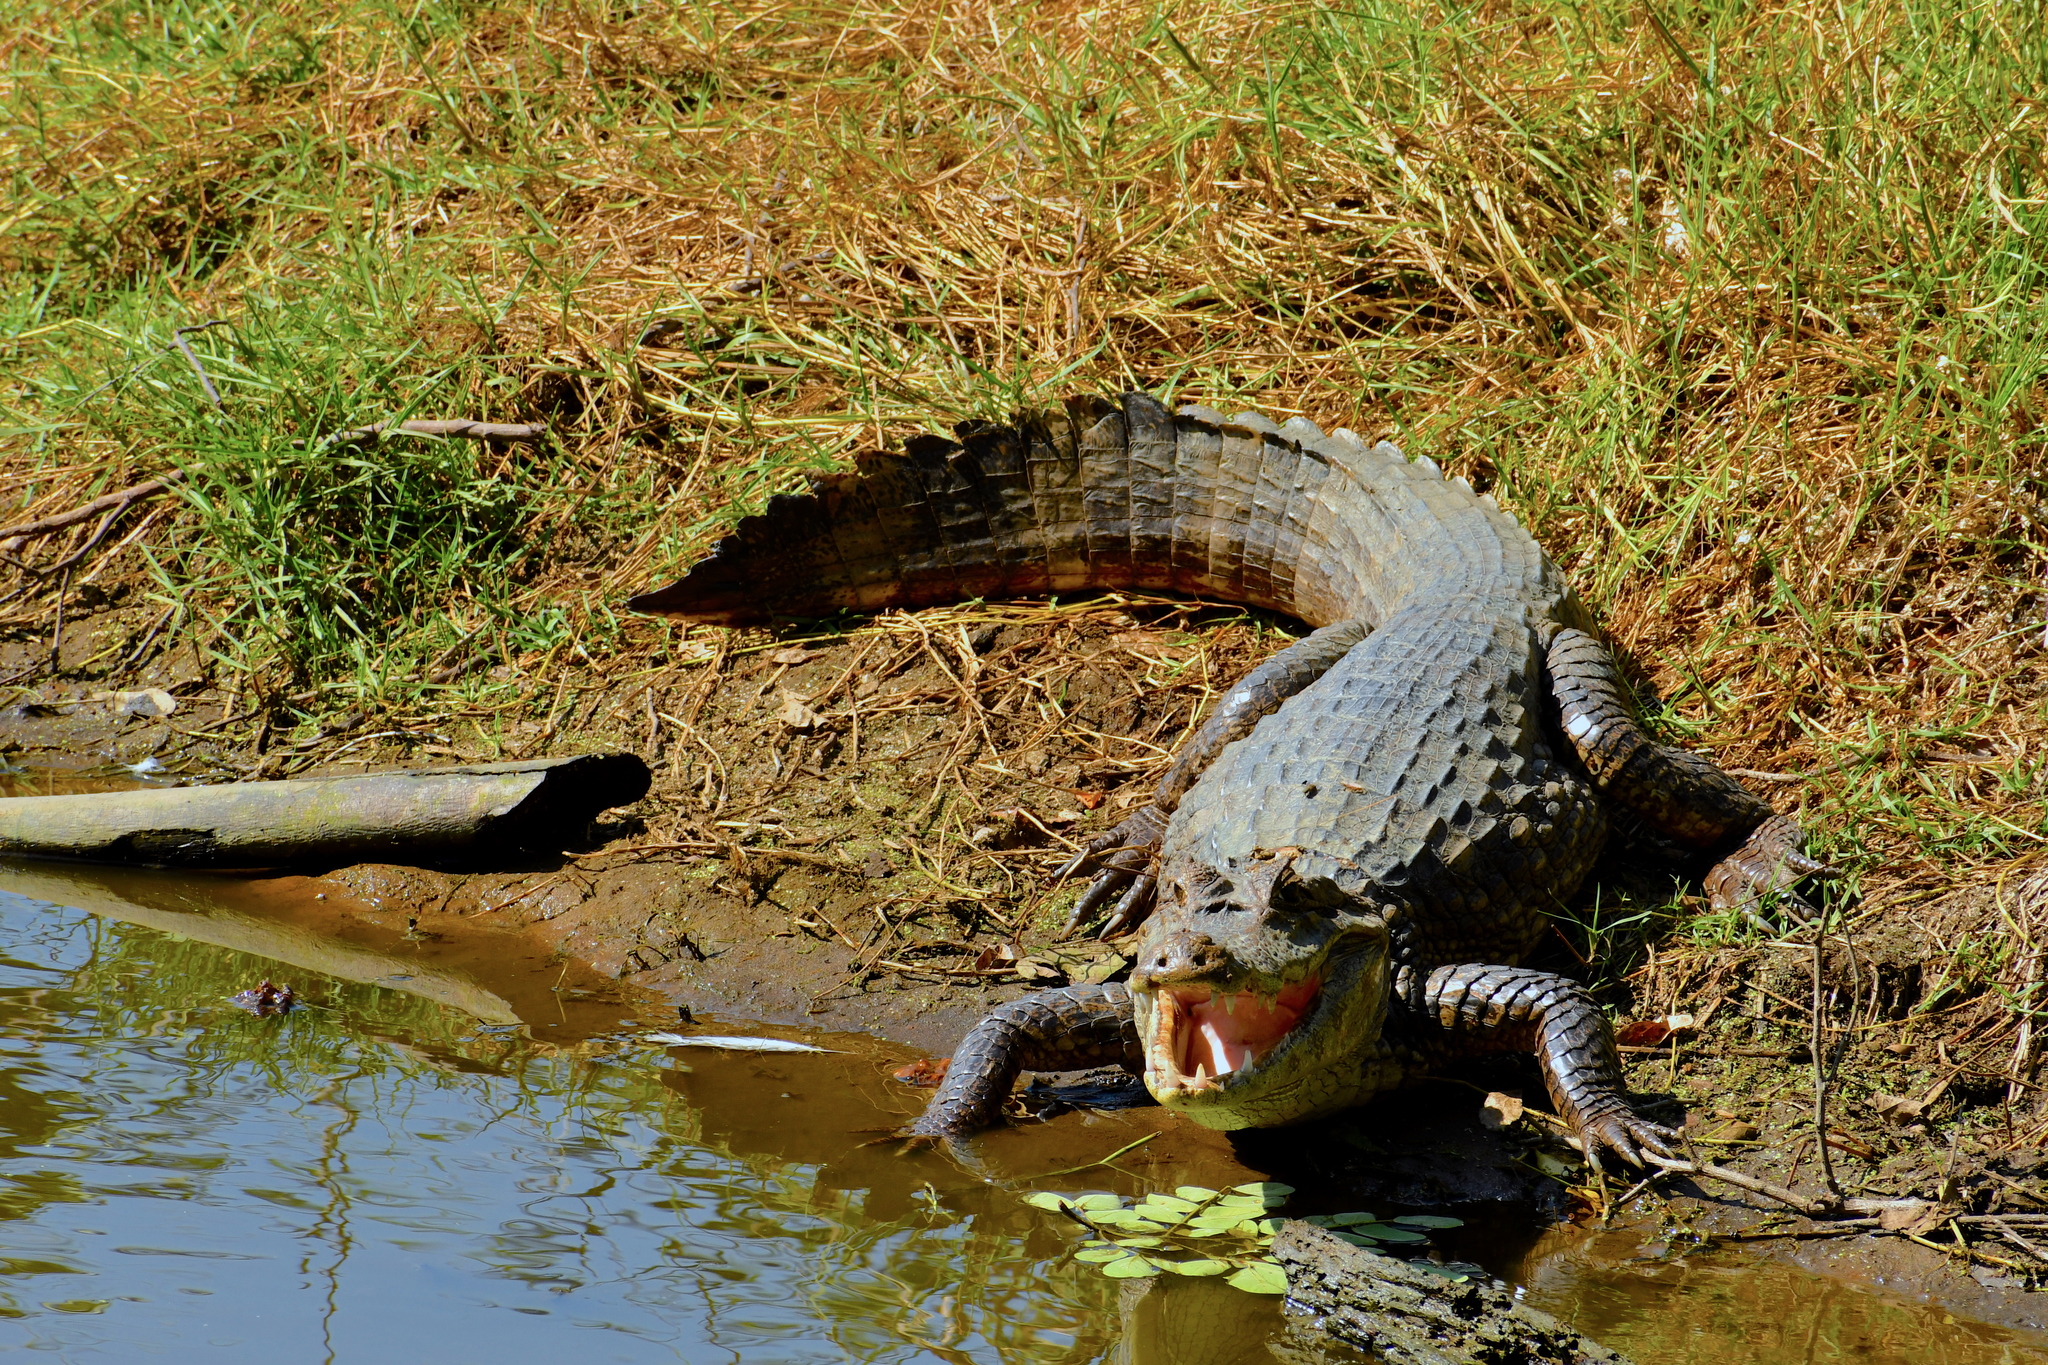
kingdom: Animalia
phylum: Chordata
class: Crocodylia
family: Alligatoridae
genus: Caiman
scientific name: Caiman crocodilus
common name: Common caiman
